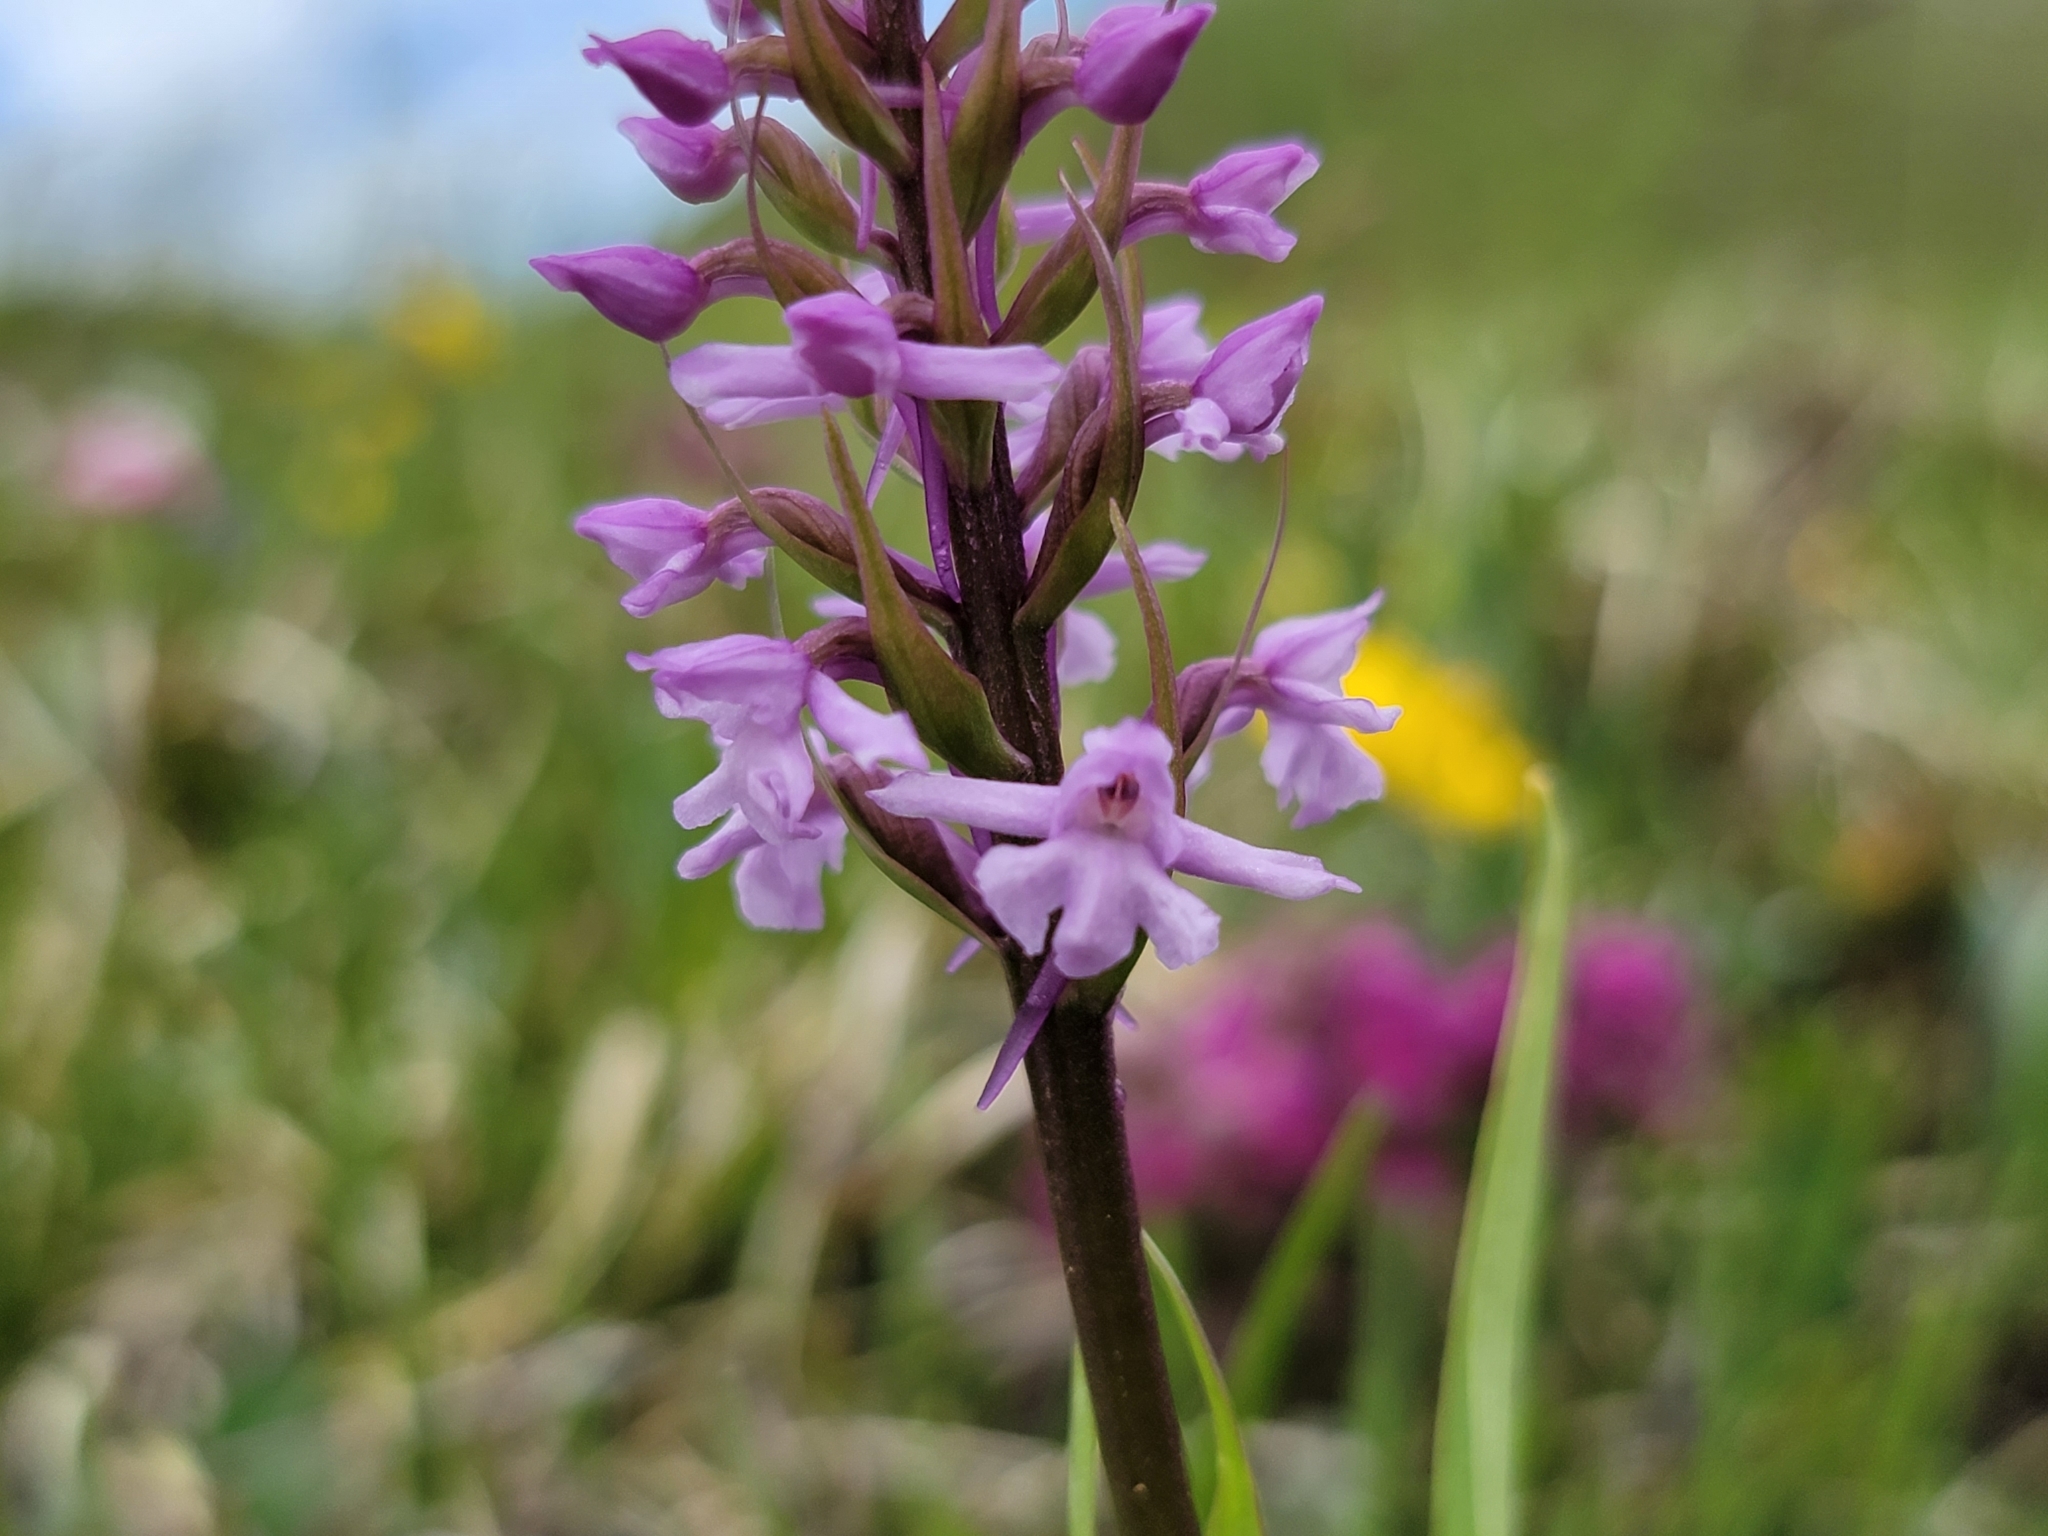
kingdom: Plantae
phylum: Tracheophyta
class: Liliopsida
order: Asparagales
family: Orchidaceae
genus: Gymnadenia
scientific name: Gymnadenia conopsea
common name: Fragrant orchid
